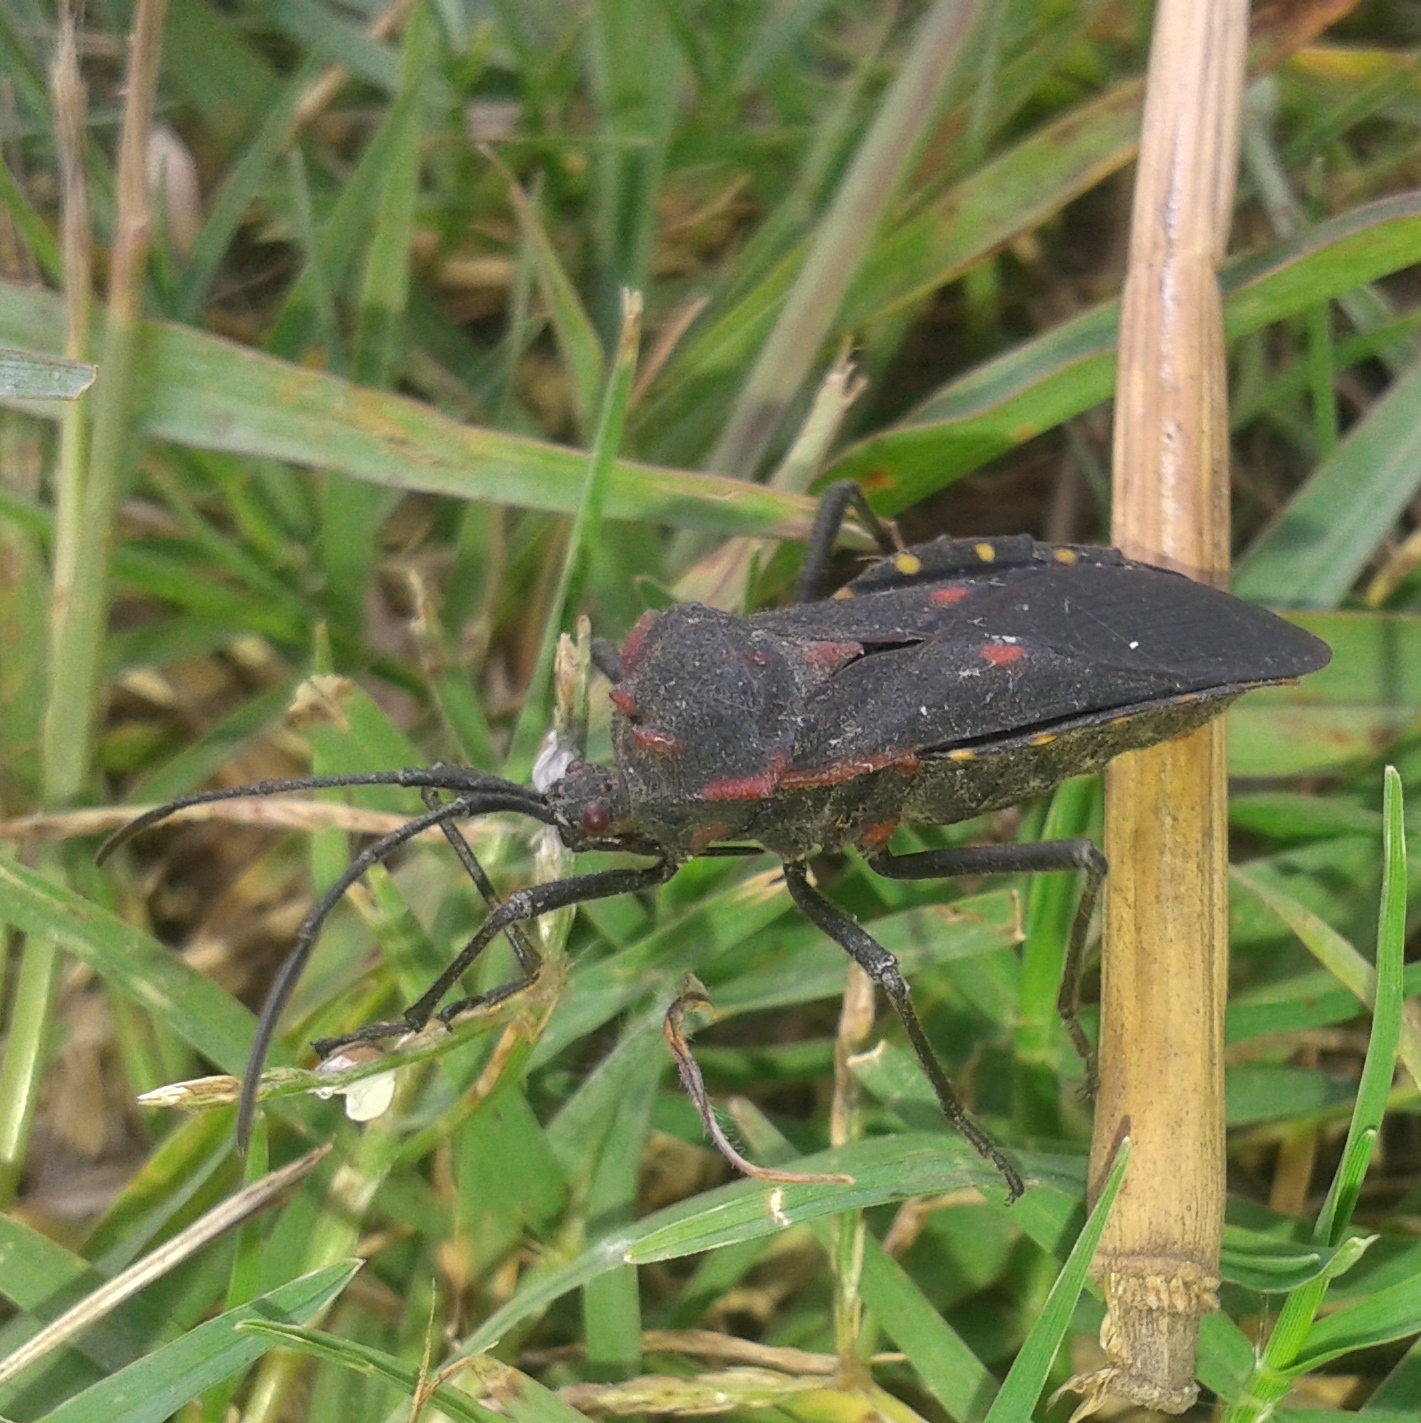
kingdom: Animalia
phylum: Arthropoda
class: Insecta
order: Hemiptera
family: Coreidae
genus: Sephina
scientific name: Sephina pustulata
